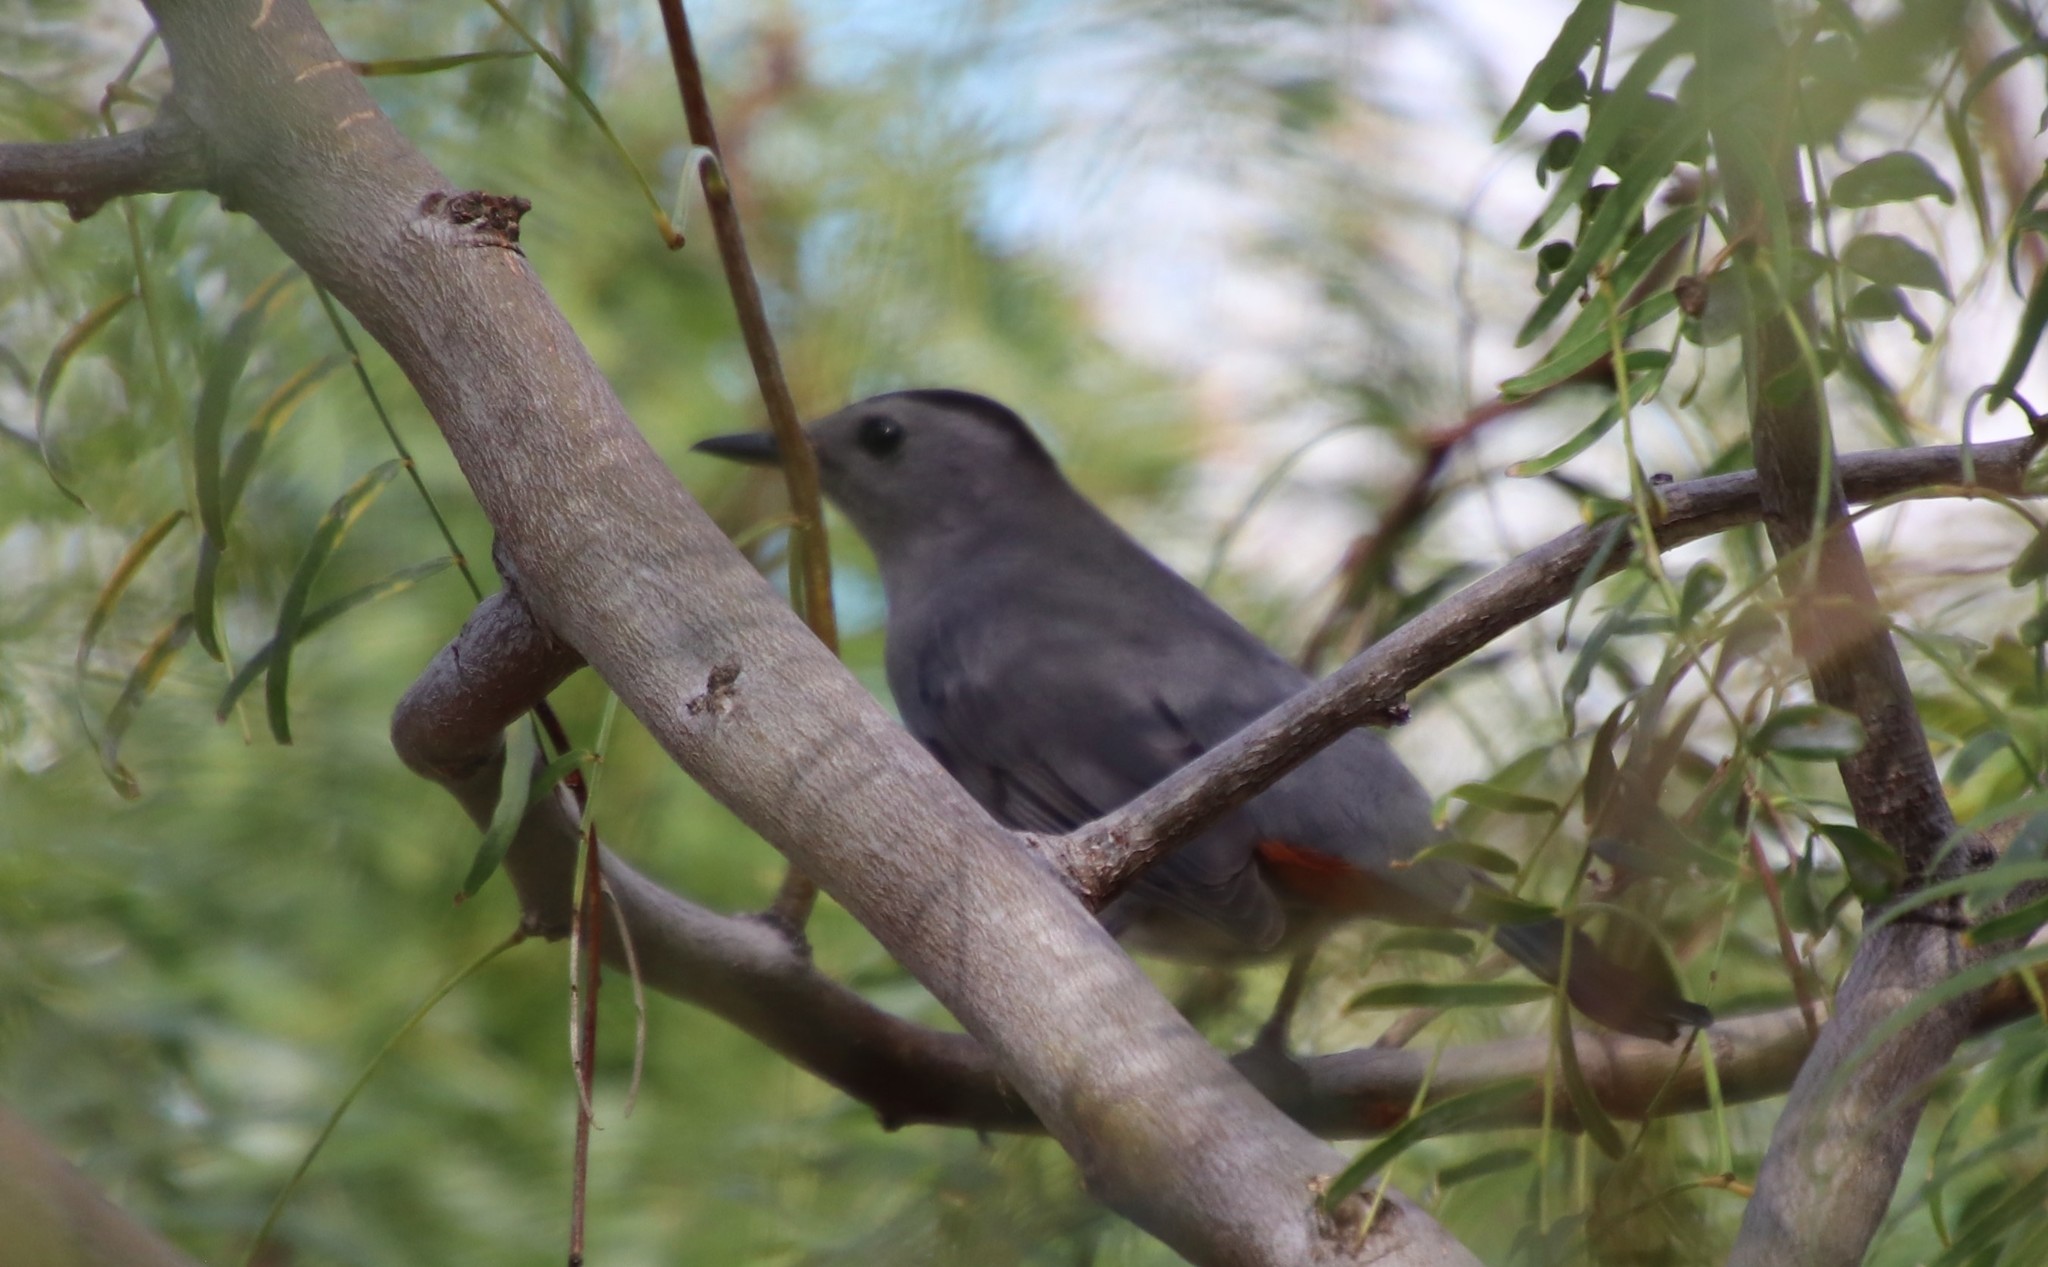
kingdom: Animalia
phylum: Chordata
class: Aves
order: Passeriformes
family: Mimidae
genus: Dumetella
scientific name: Dumetella carolinensis
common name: Gray catbird
